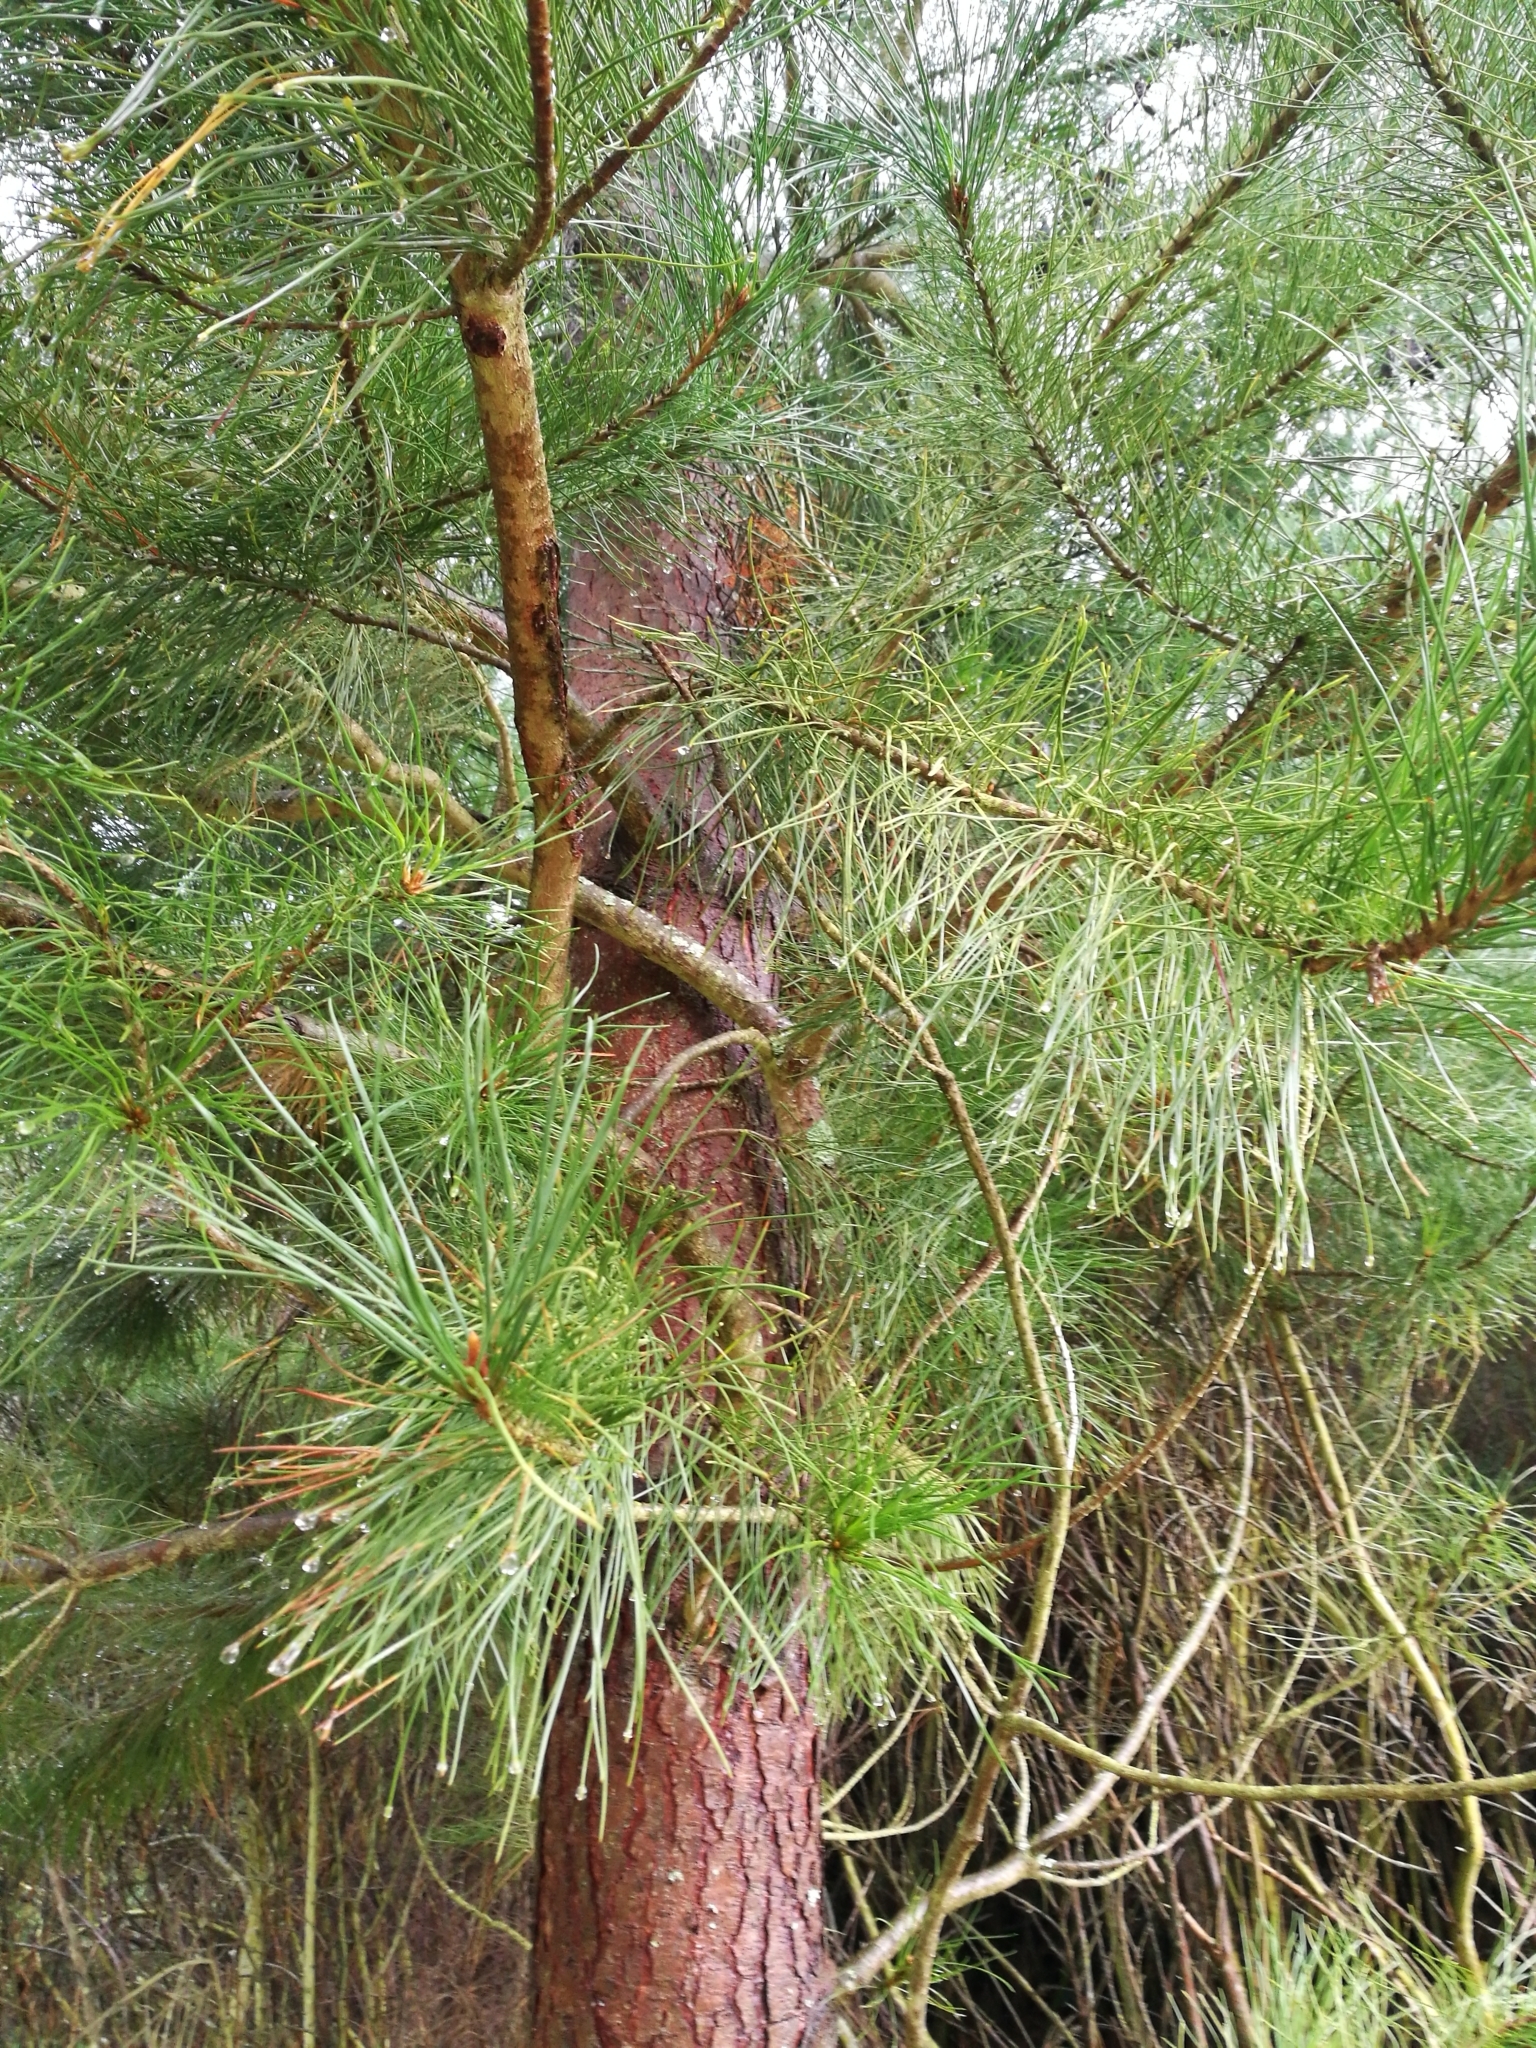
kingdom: Plantae
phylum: Tracheophyta
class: Pinopsida
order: Pinales
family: Pinaceae
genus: Pinus
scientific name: Pinus radiata
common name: Monterey pine
